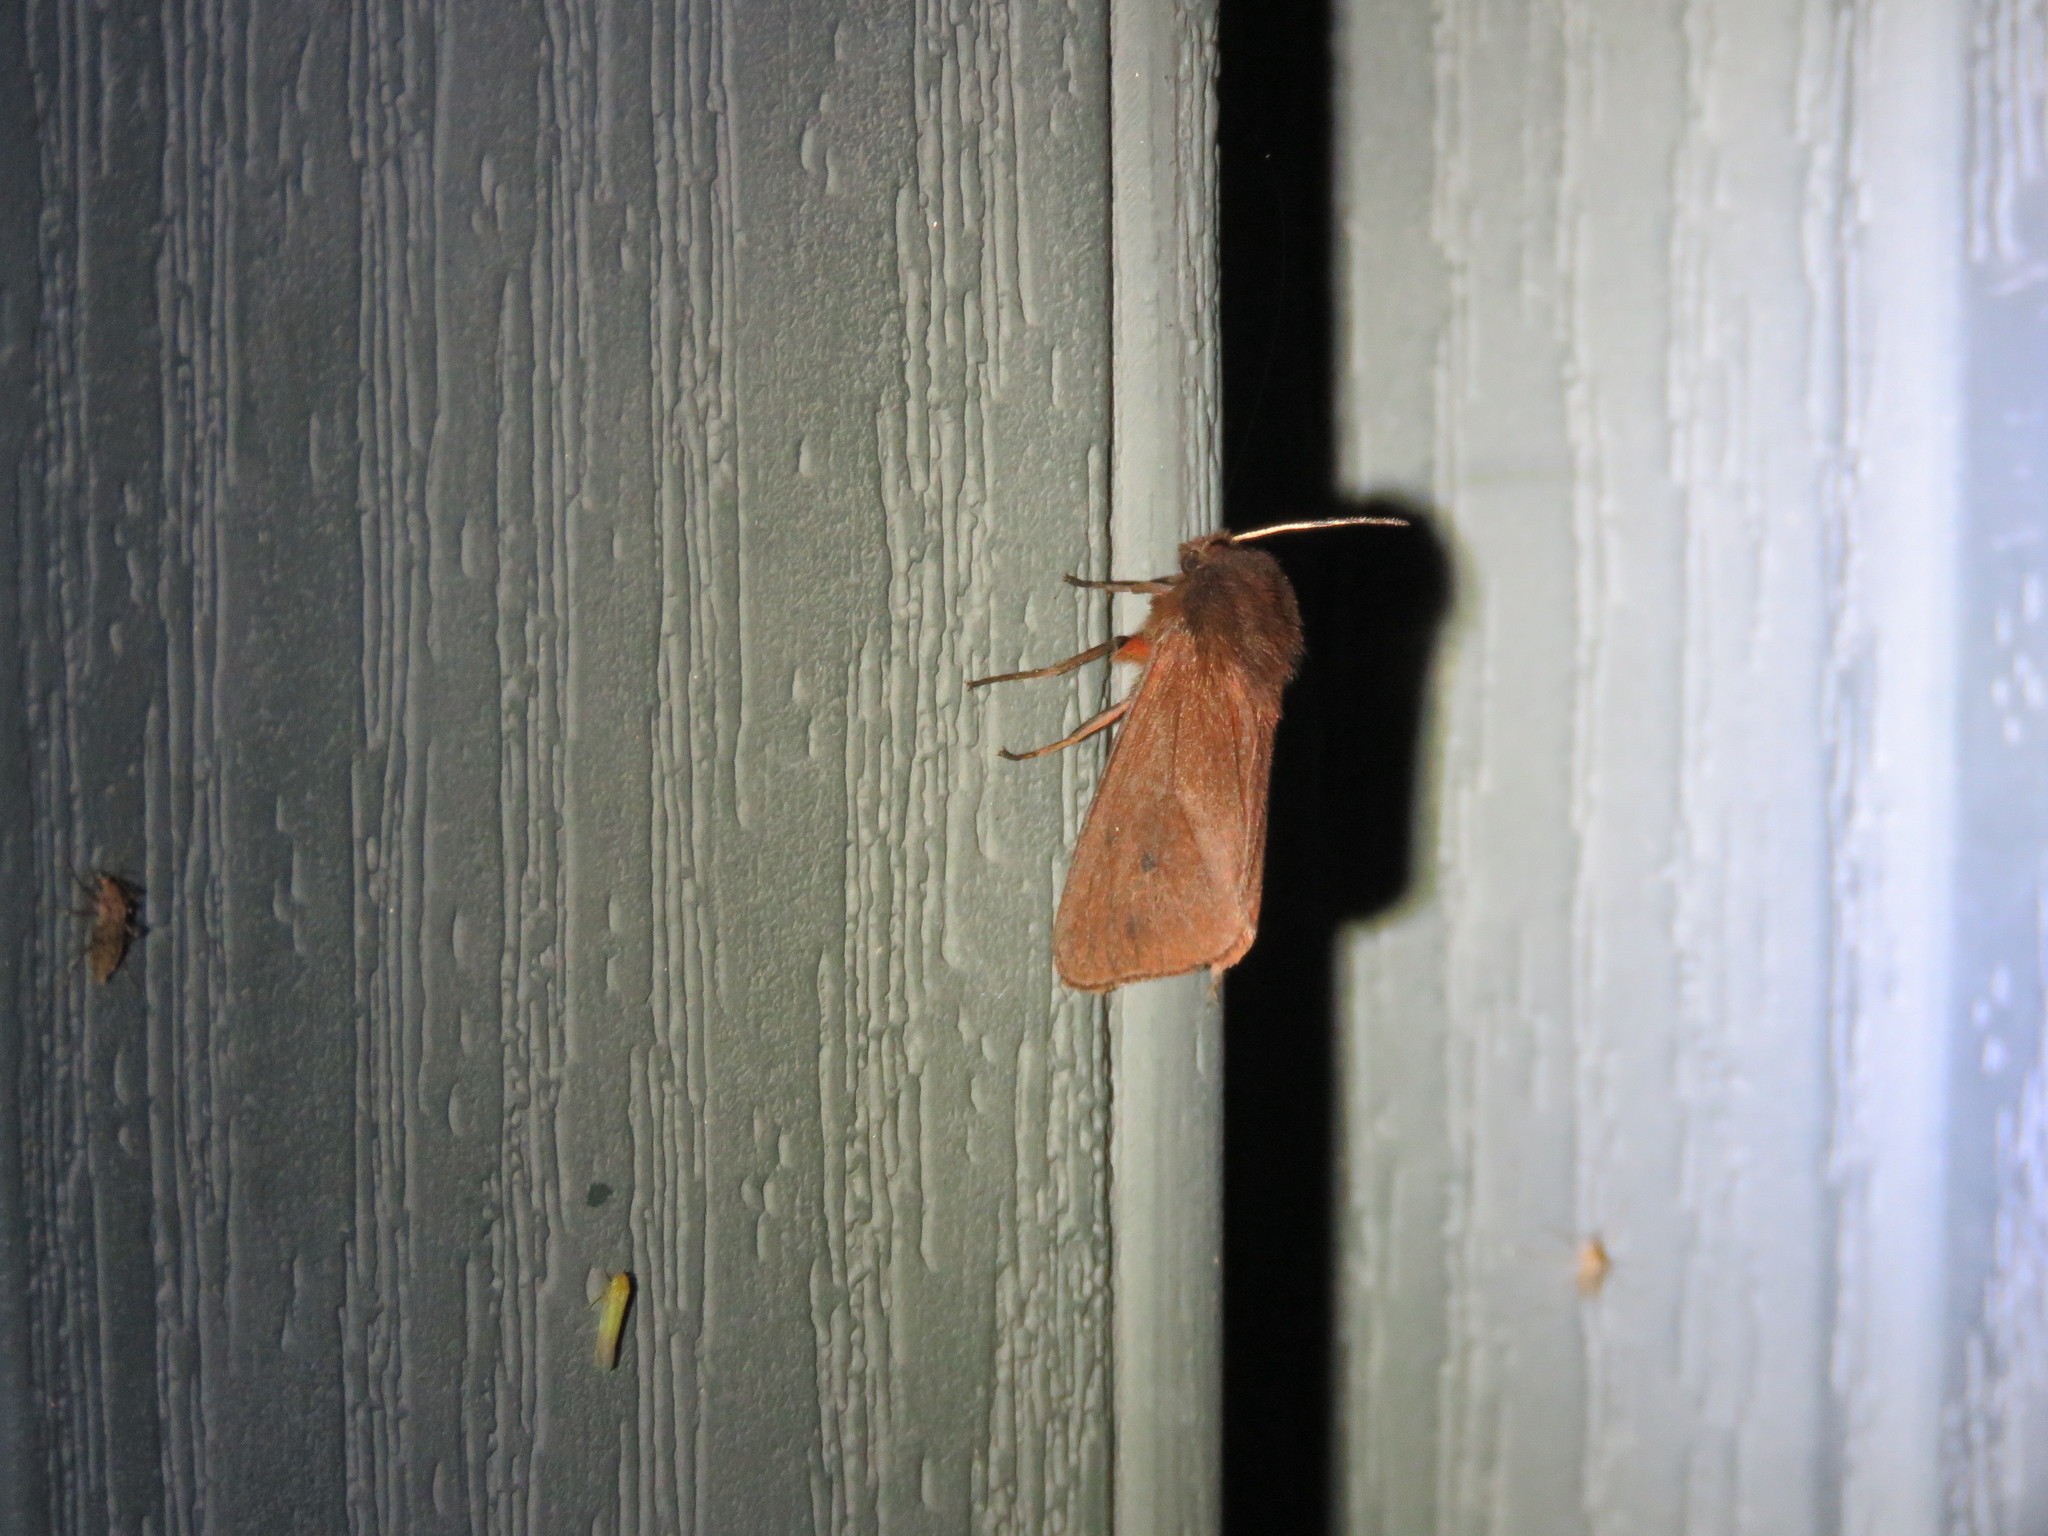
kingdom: Animalia
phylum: Arthropoda
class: Insecta
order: Lepidoptera
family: Erebidae
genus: Phragmatobia
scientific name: Phragmatobia fuliginosa
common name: Ruby tiger
